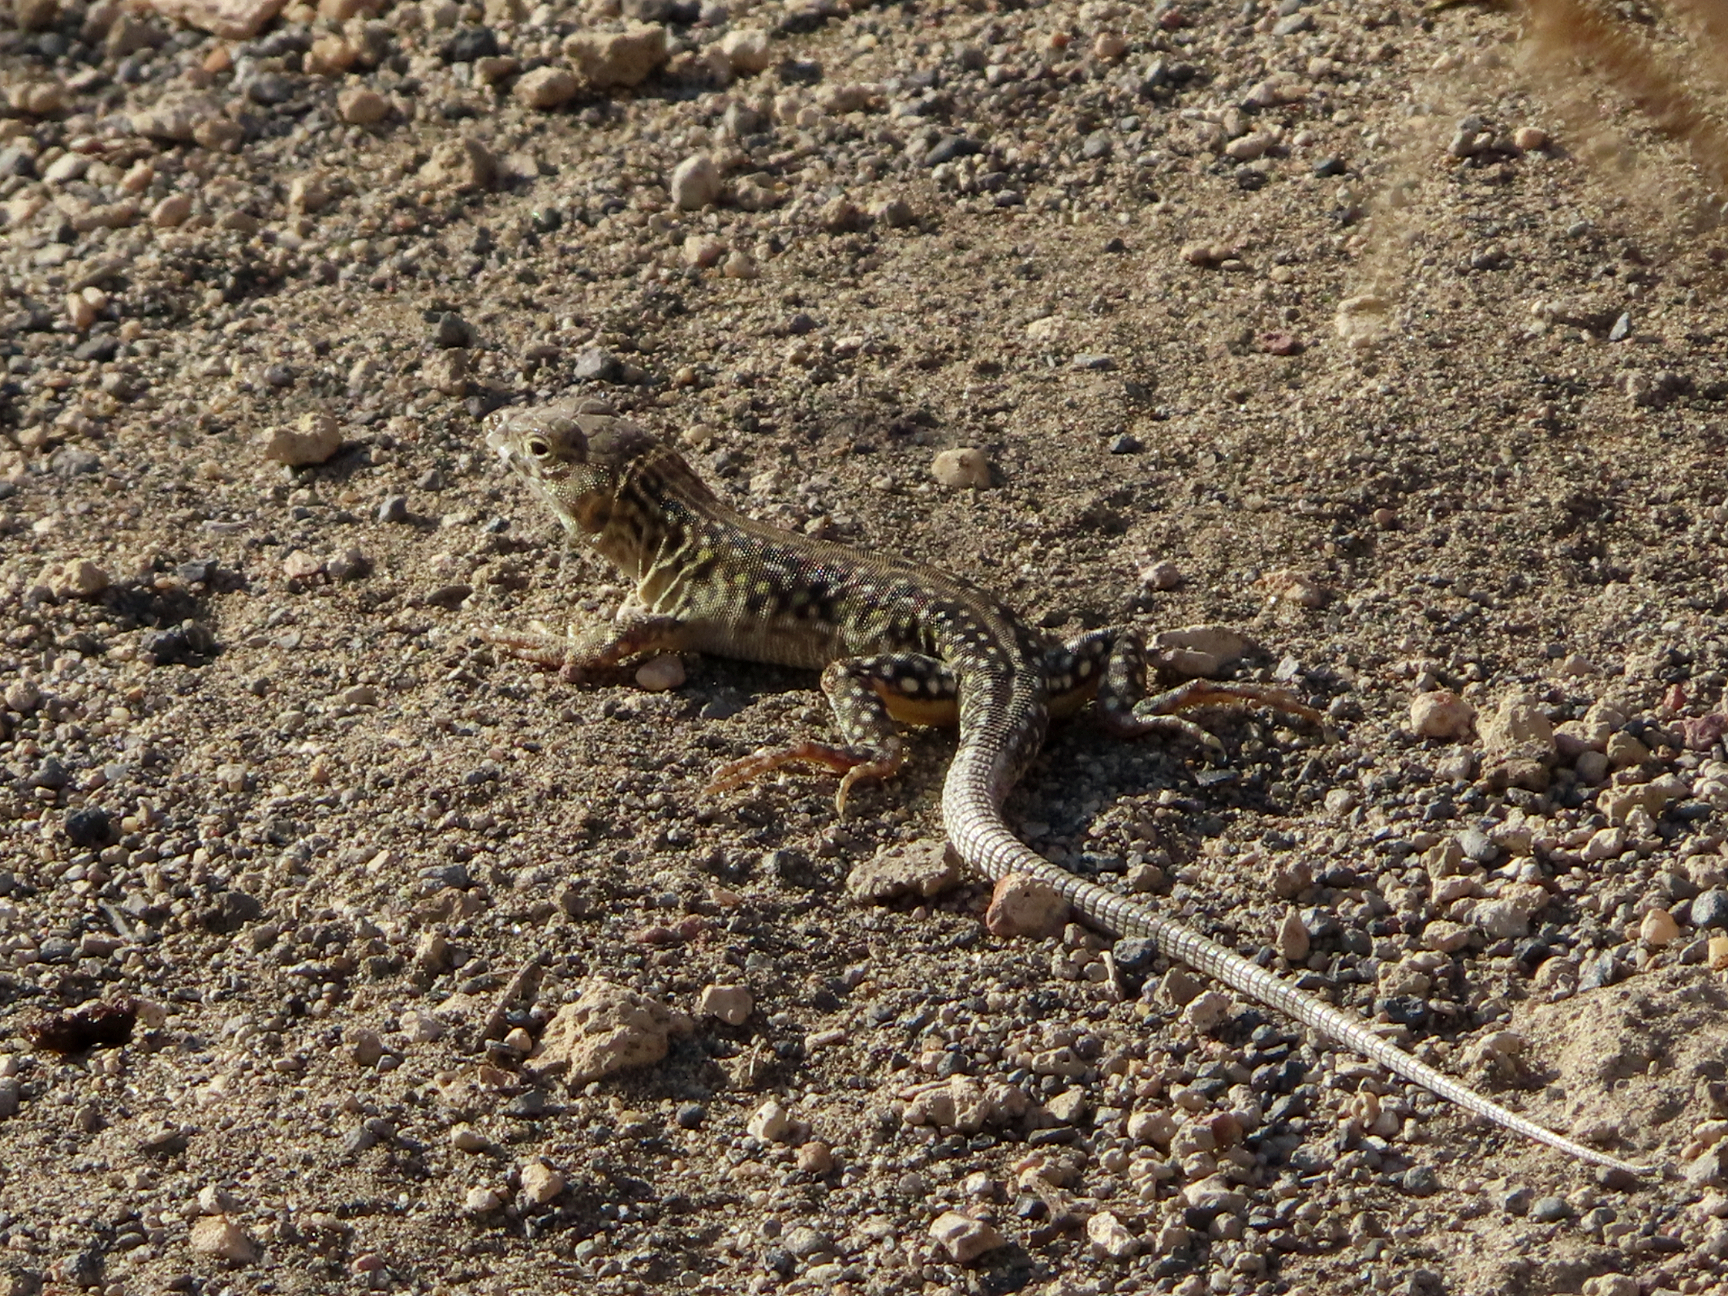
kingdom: Animalia
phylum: Chordata
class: Squamata
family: Lacertidae
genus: Eremias
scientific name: Eremias strauchi
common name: Strauch's racerunner
